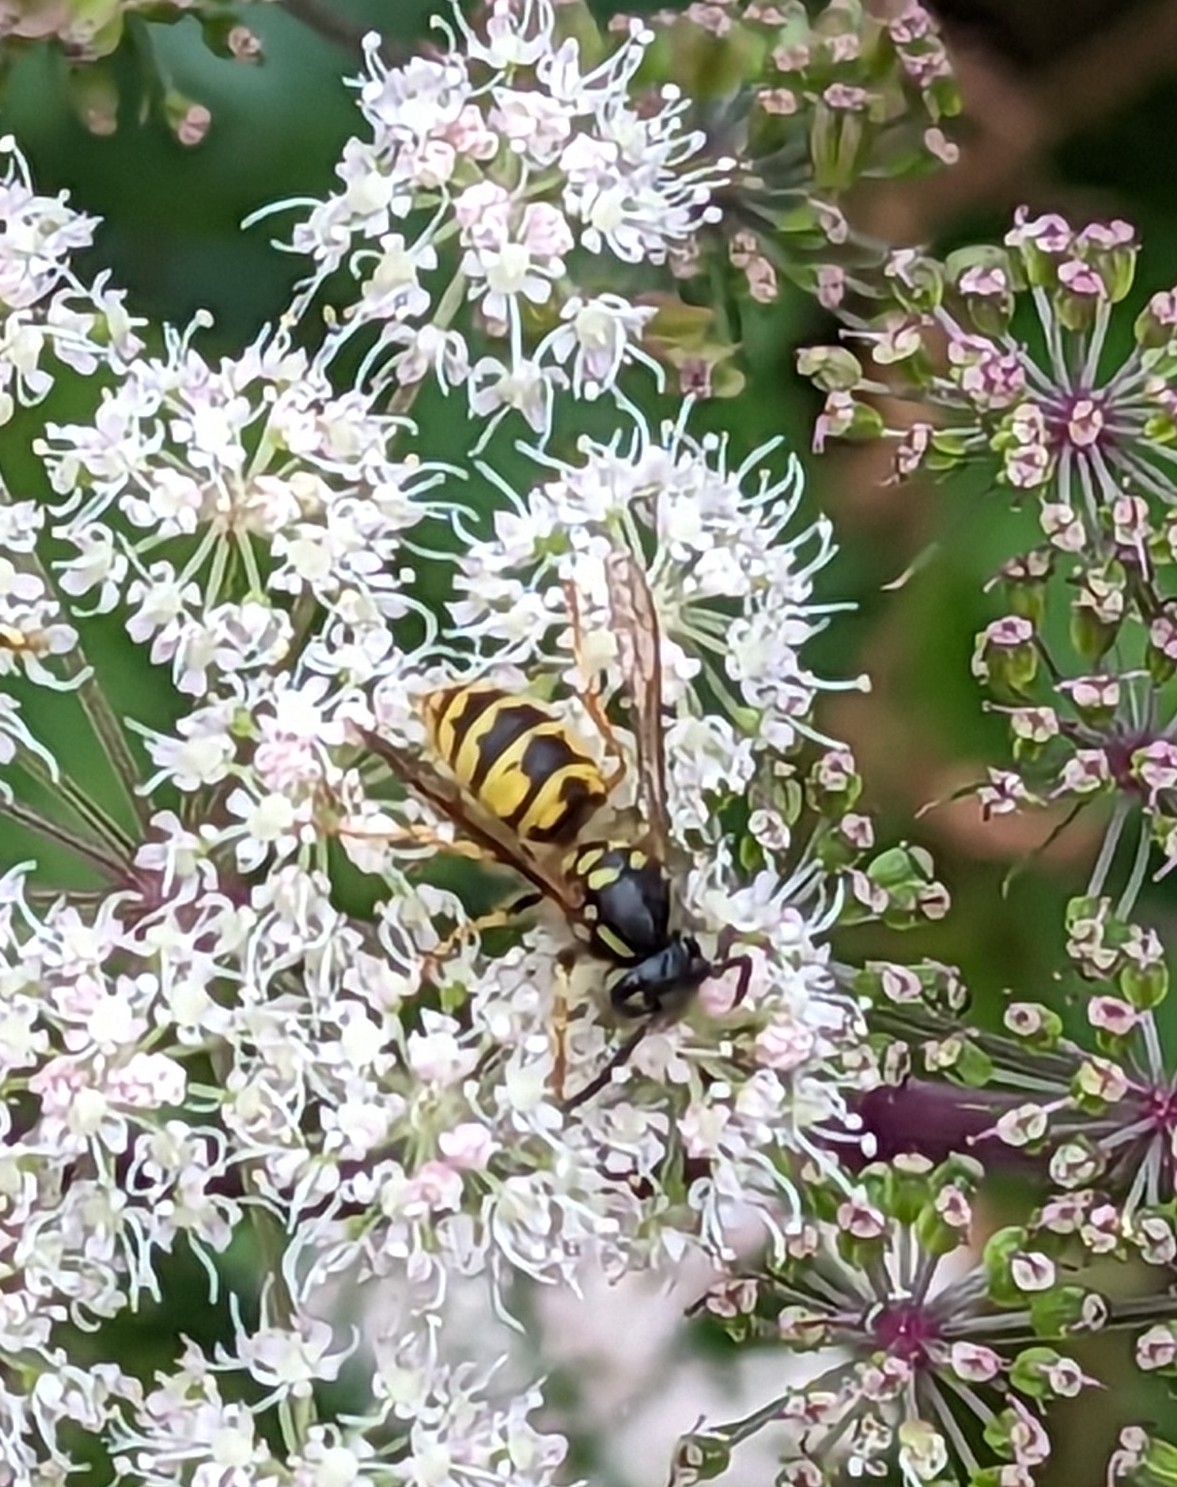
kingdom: Animalia
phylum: Arthropoda
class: Insecta
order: Hymenoptera
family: Vespidae
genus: Vespula
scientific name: Vespula vulgaris
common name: Common wasp
